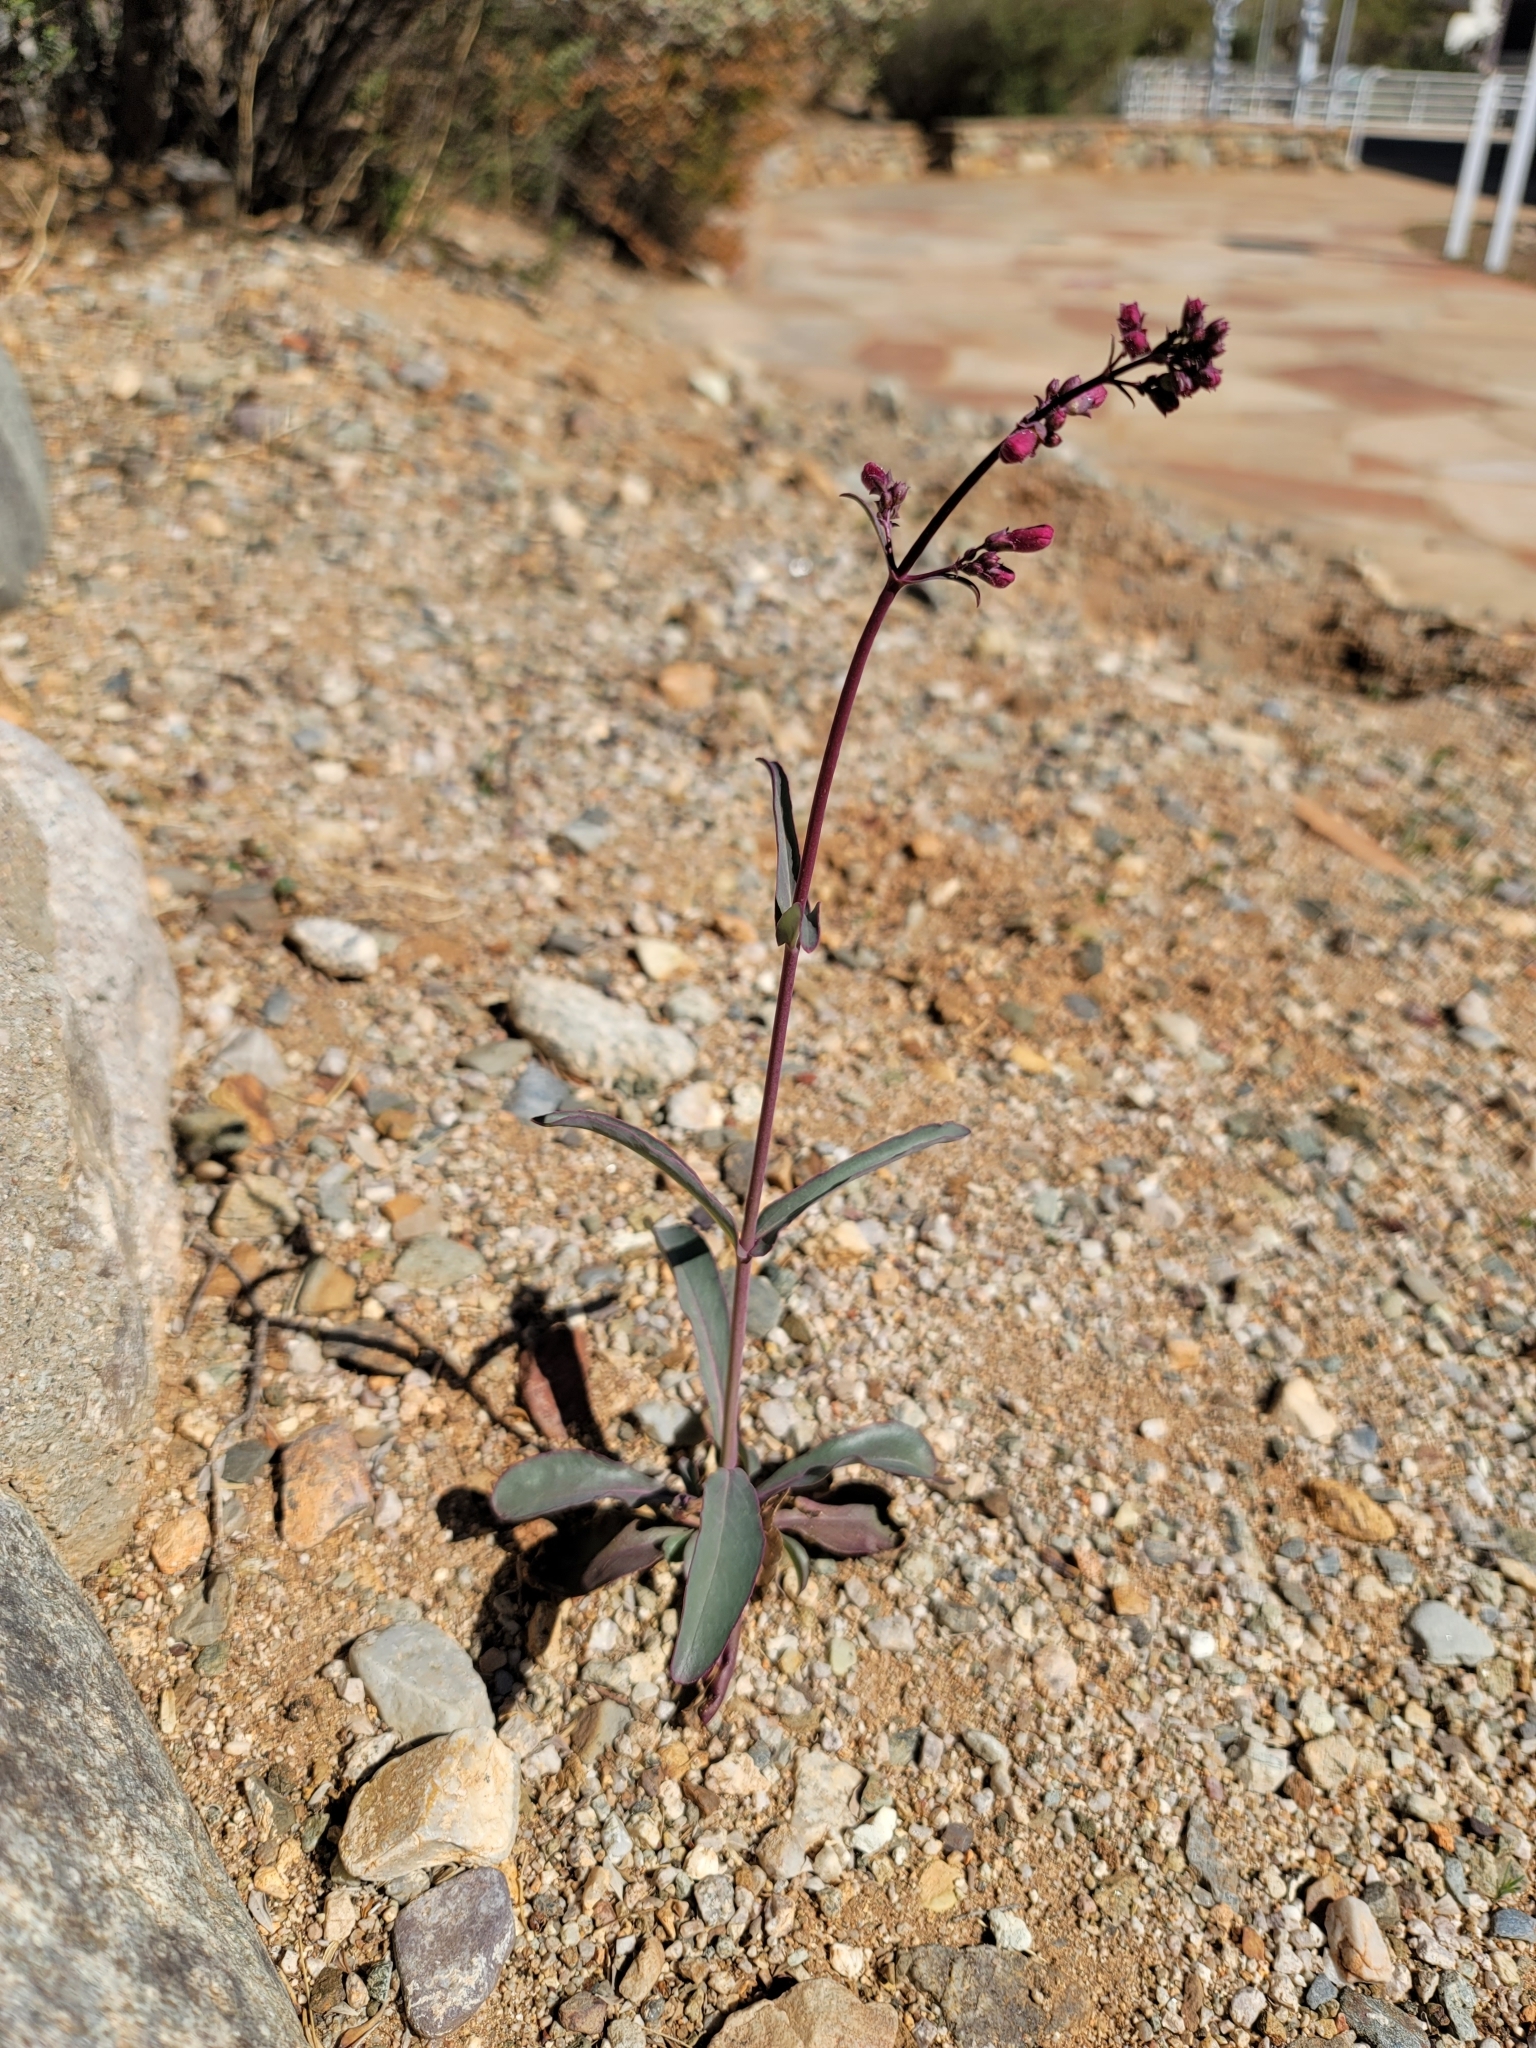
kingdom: Plantae
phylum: Tracheophyta
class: Magnoliopsida
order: Lamiales
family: Plantaginaceae
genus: Penstemon
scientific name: Penstemon parryi
